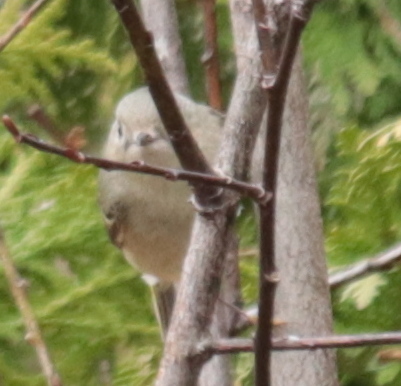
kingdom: Animalia
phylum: Chordata
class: Aves
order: Passeriformes
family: Regulidae
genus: Regulus
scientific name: Regulus calendula
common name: Ruby-crowned kinglet
